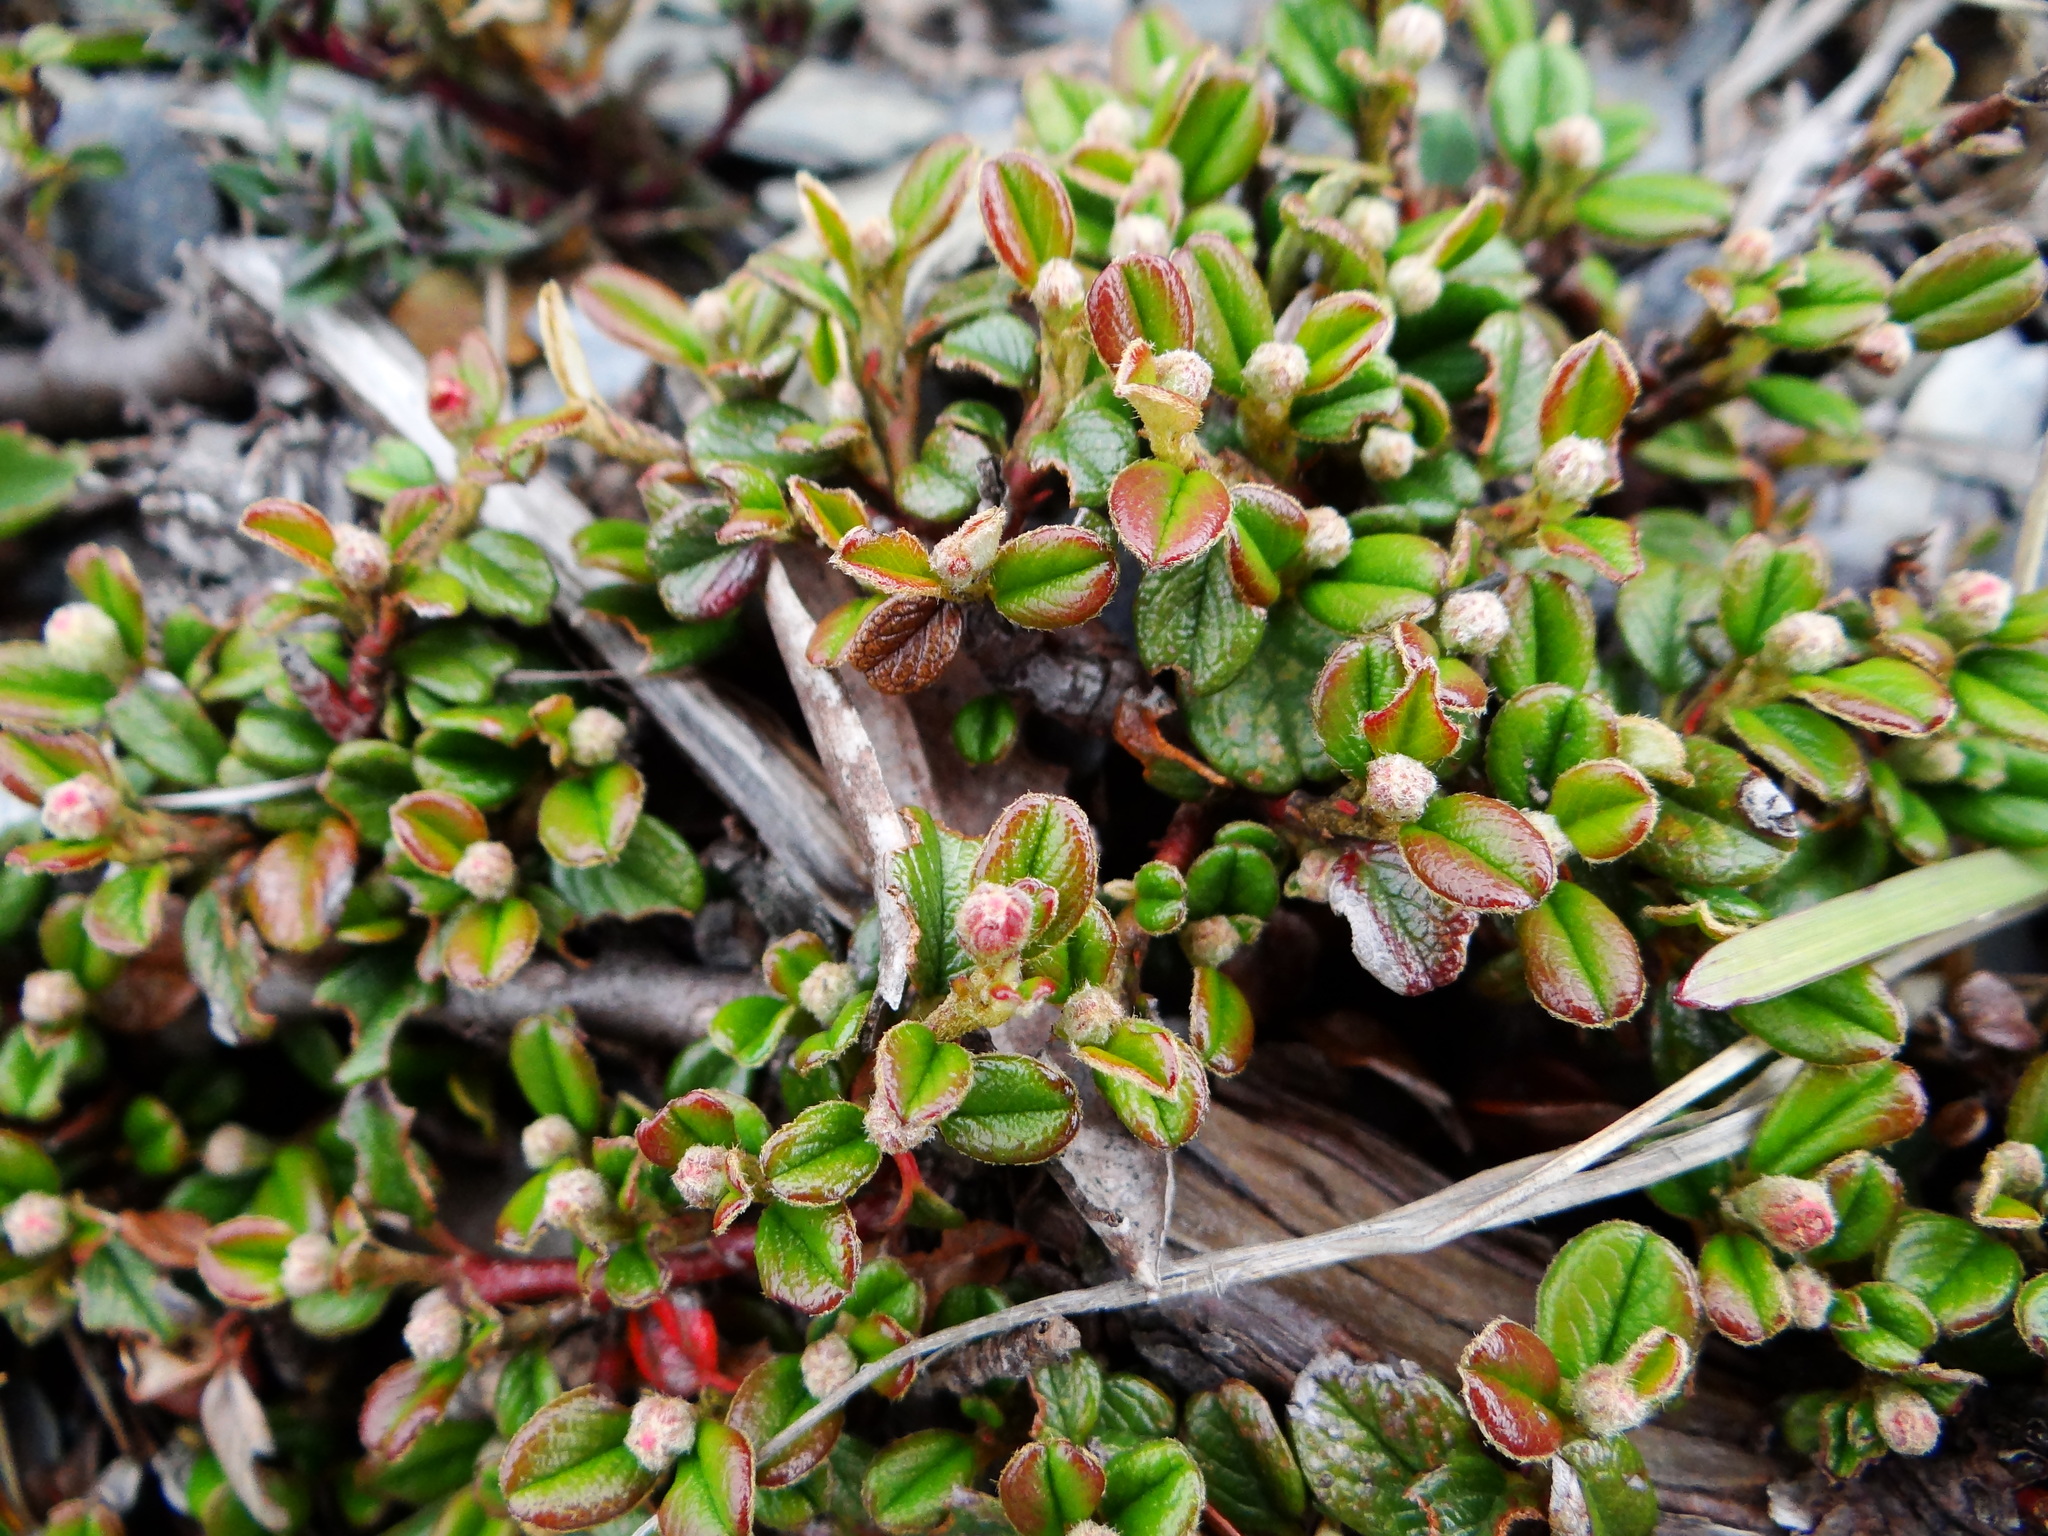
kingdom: Plantae
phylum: Tracheophyta
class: Magnoliopsida
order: Rosales
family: Rosaceae
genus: Cotoneaster
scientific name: Cotoneaster morrisonensis
